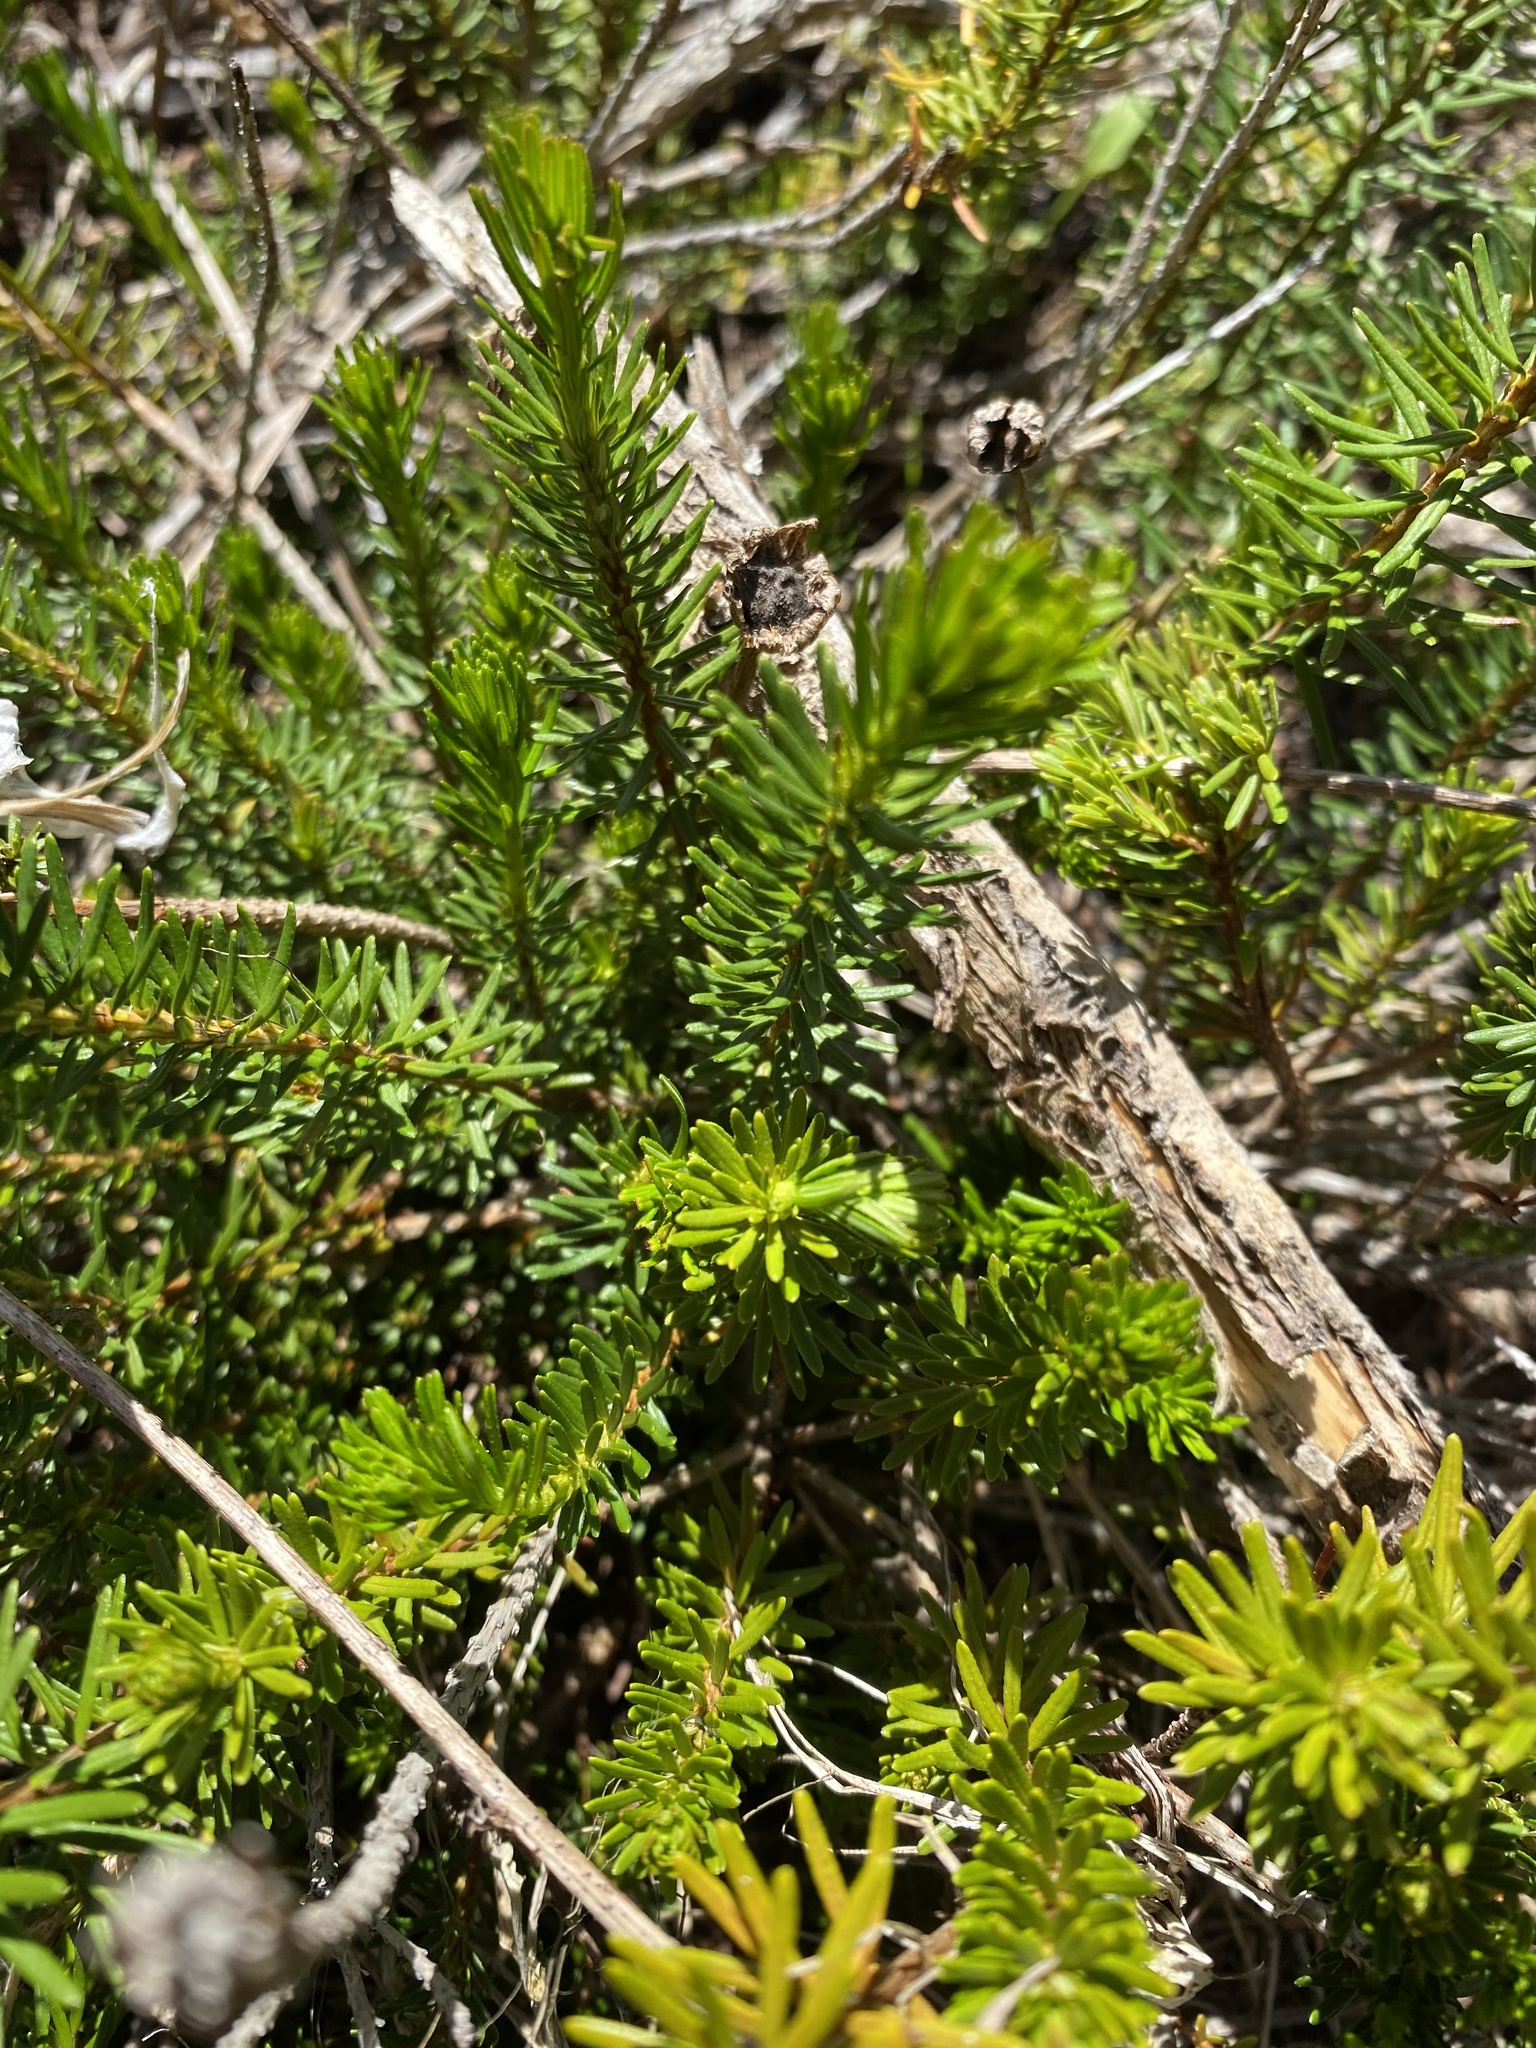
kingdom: Plantae
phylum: Tracheophyta
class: Magnoliopsida
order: Ericales
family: Ericaceae
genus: Phyllodoce
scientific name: Phyllodoce empetriformis
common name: Pink mountain heather
